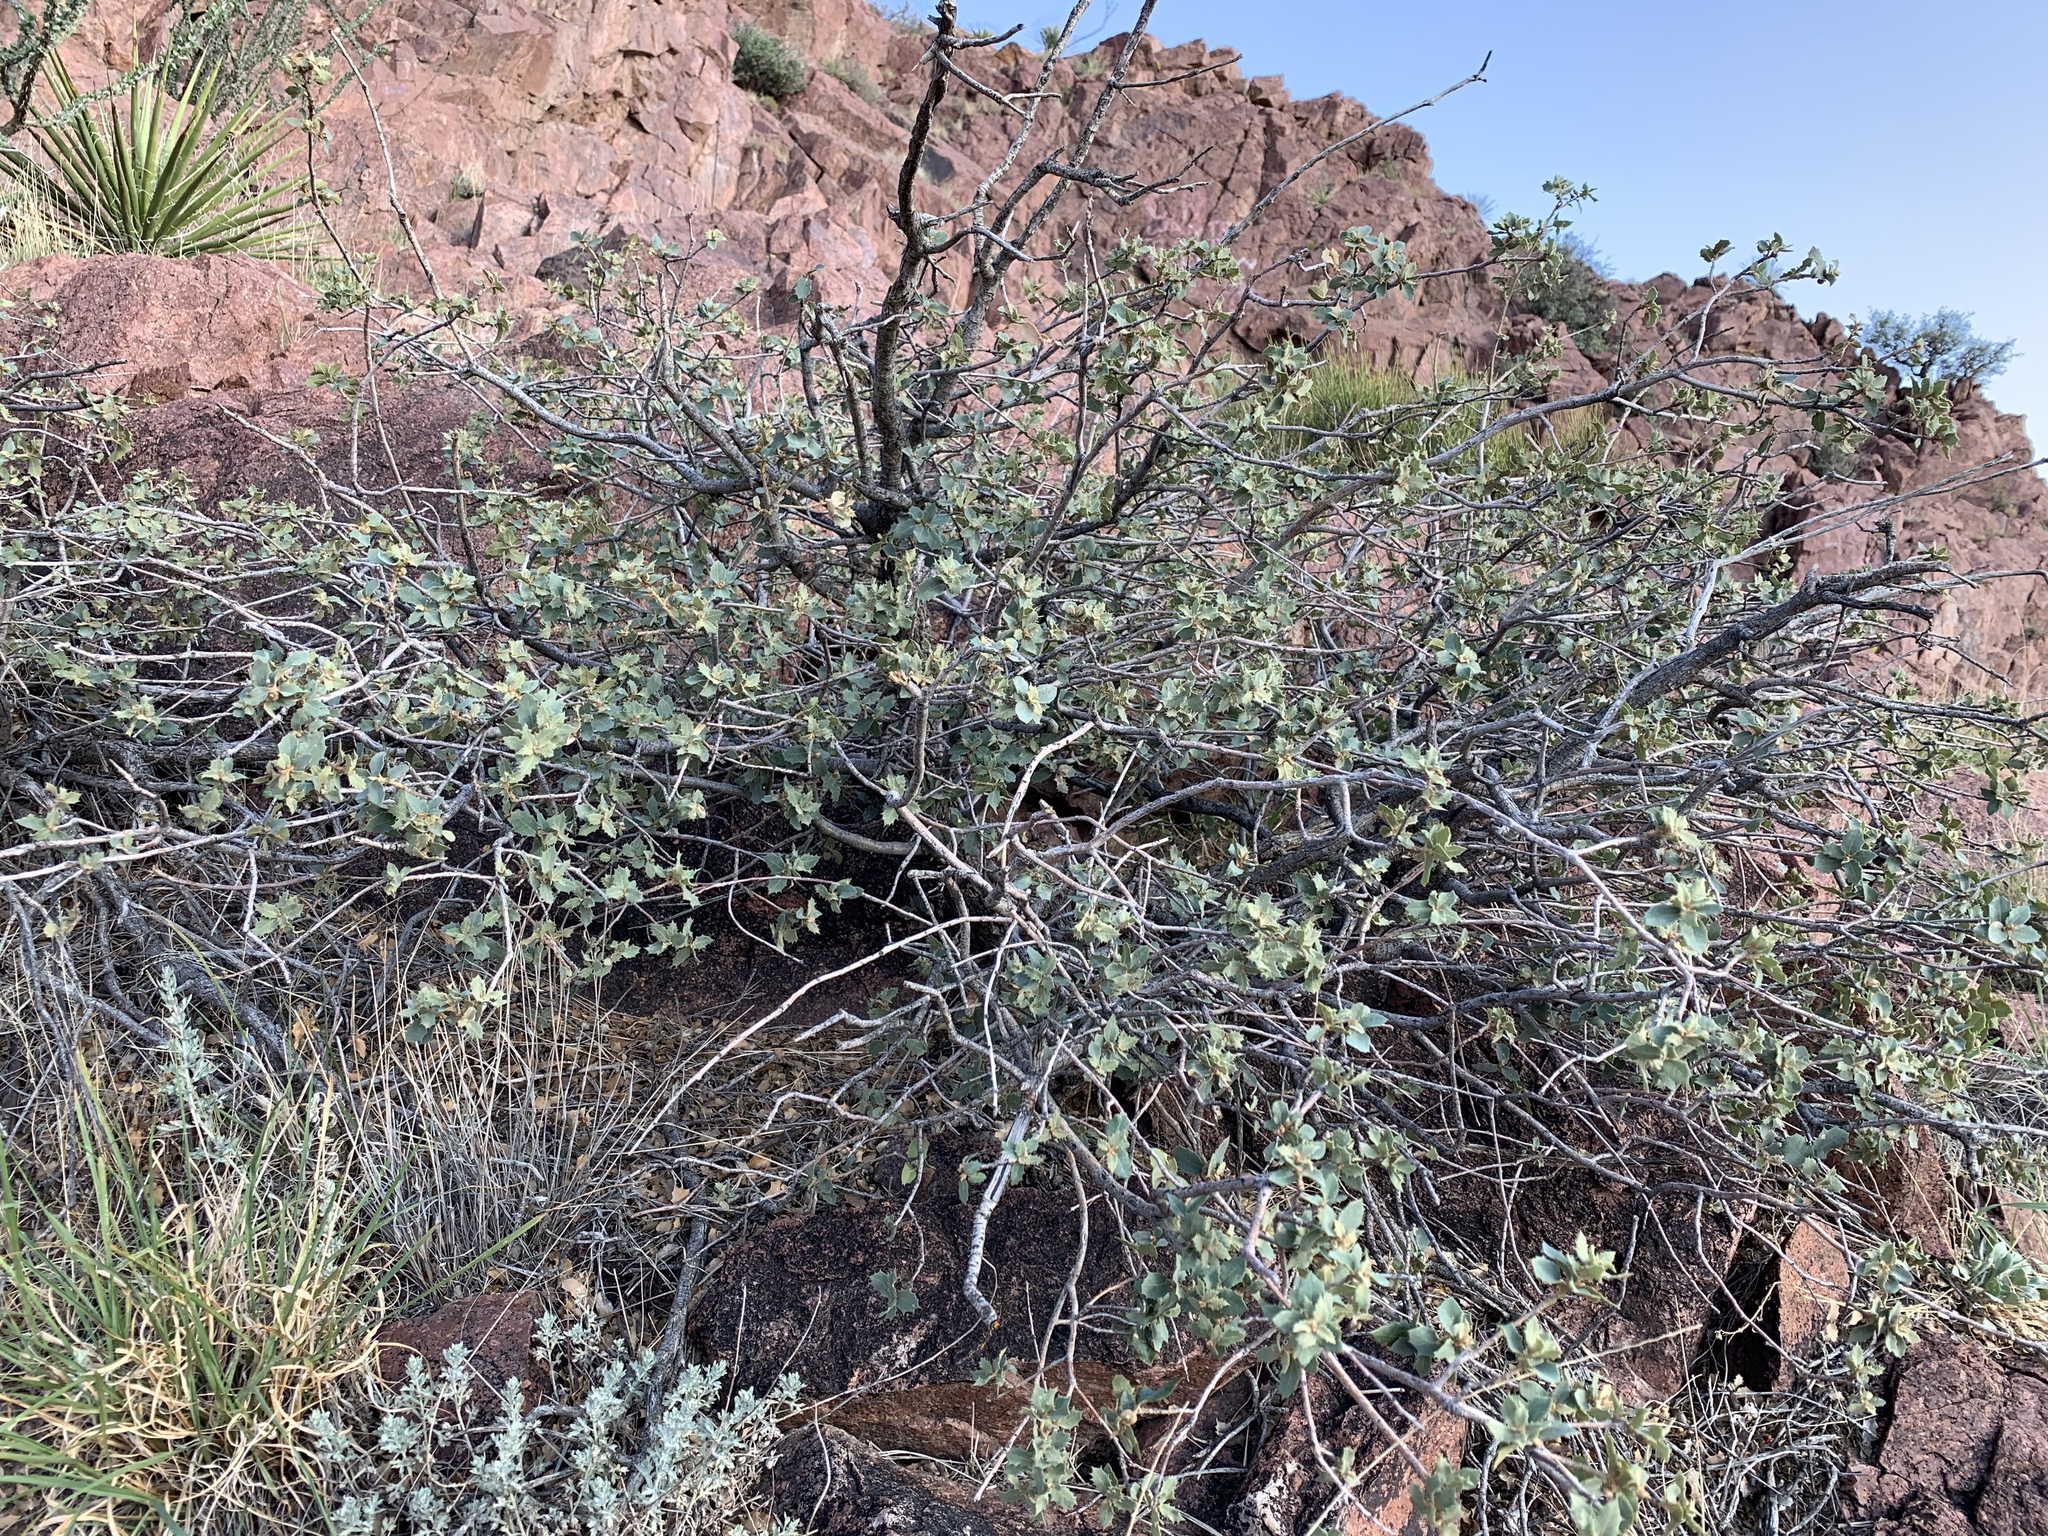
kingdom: Plantae
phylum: Tracheophyta
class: Magnoliopsida
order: Fagales
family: Fagaceae
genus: Quercus
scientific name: Quercus turbinella
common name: Sonoran scrub oak
